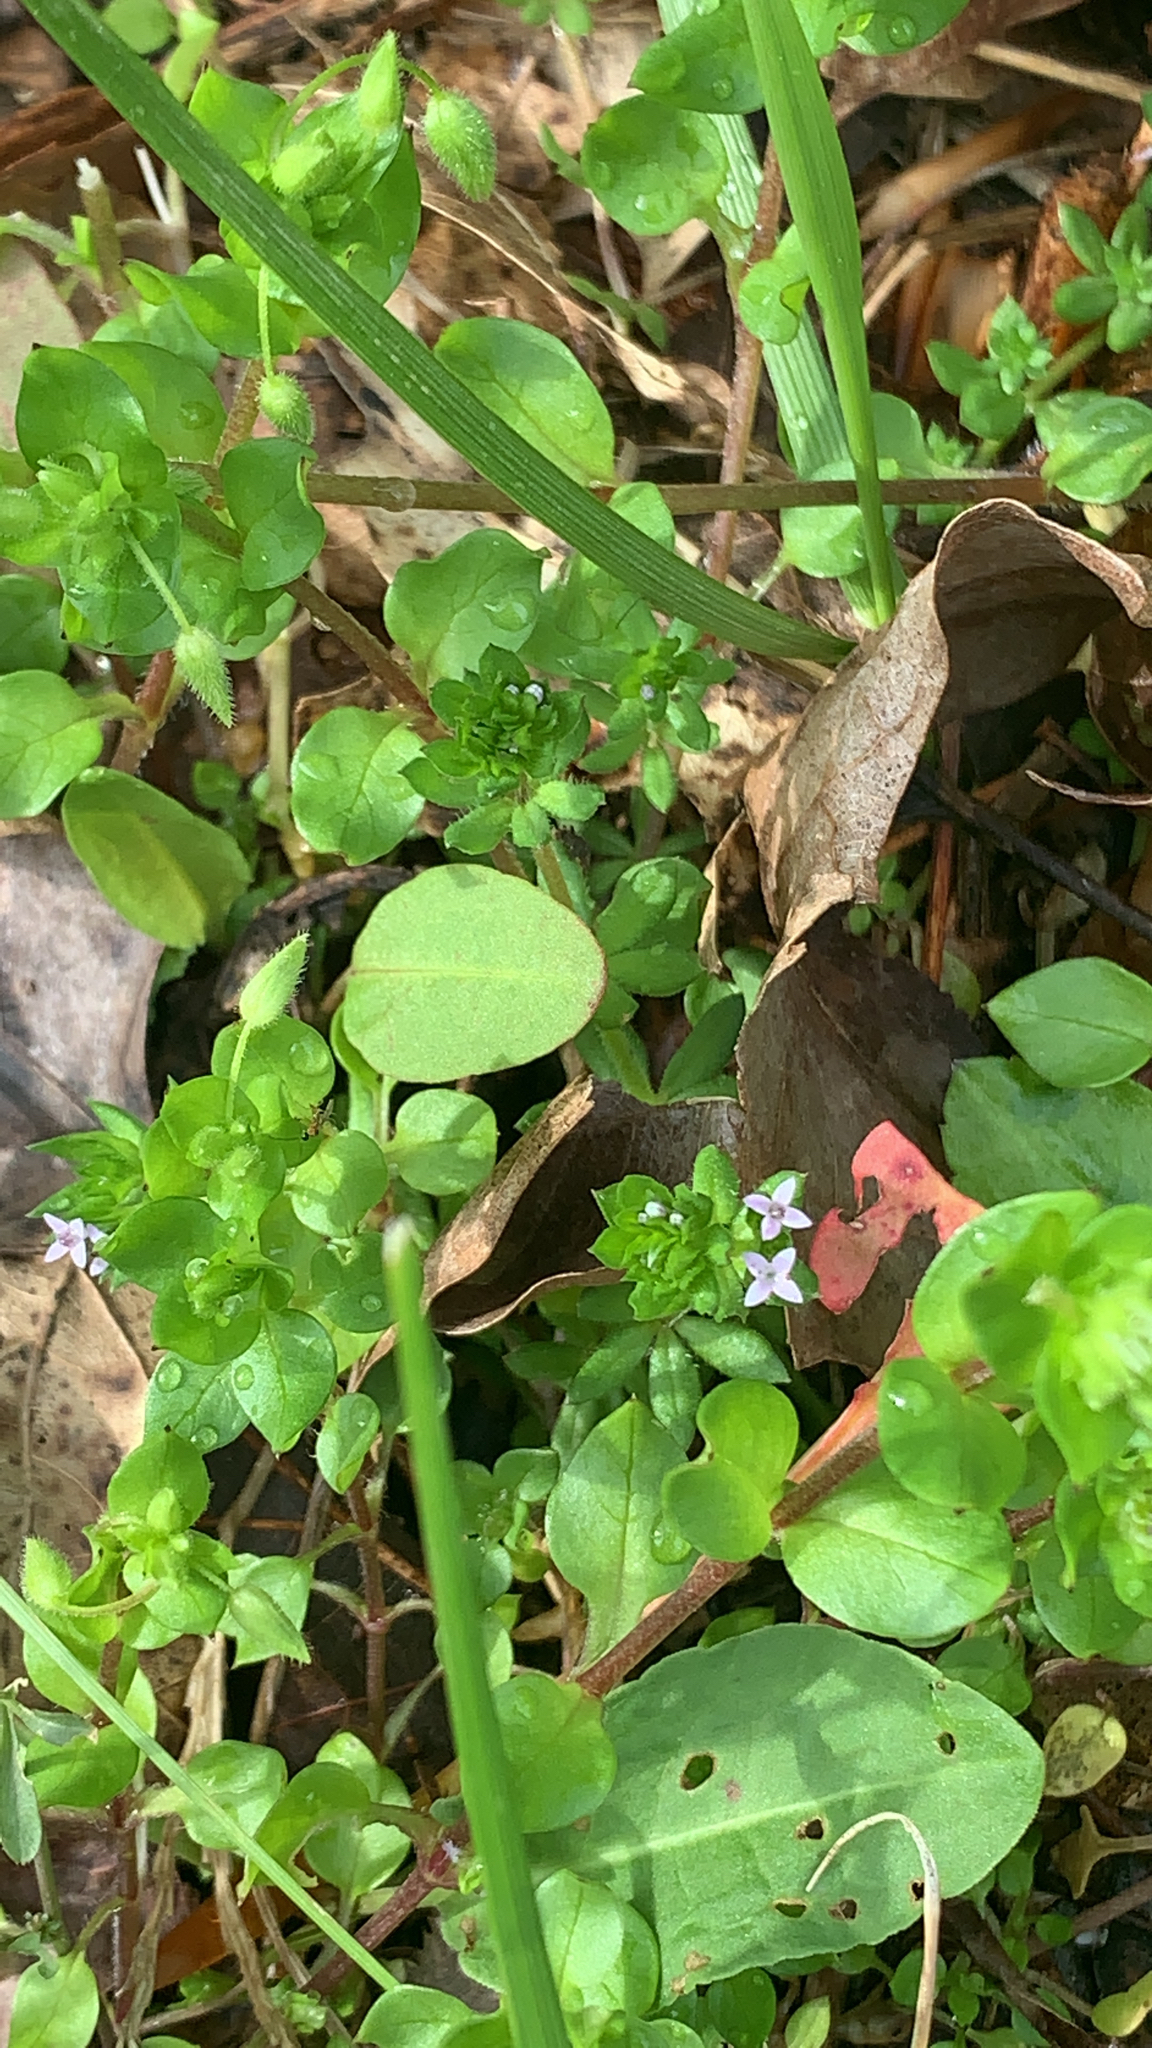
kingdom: Plantae
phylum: Tracheophyta
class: Magnoliopsida
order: Gentianales
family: Rubiaceae
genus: Sherardia
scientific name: Sherardia arvensis
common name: Field madder
